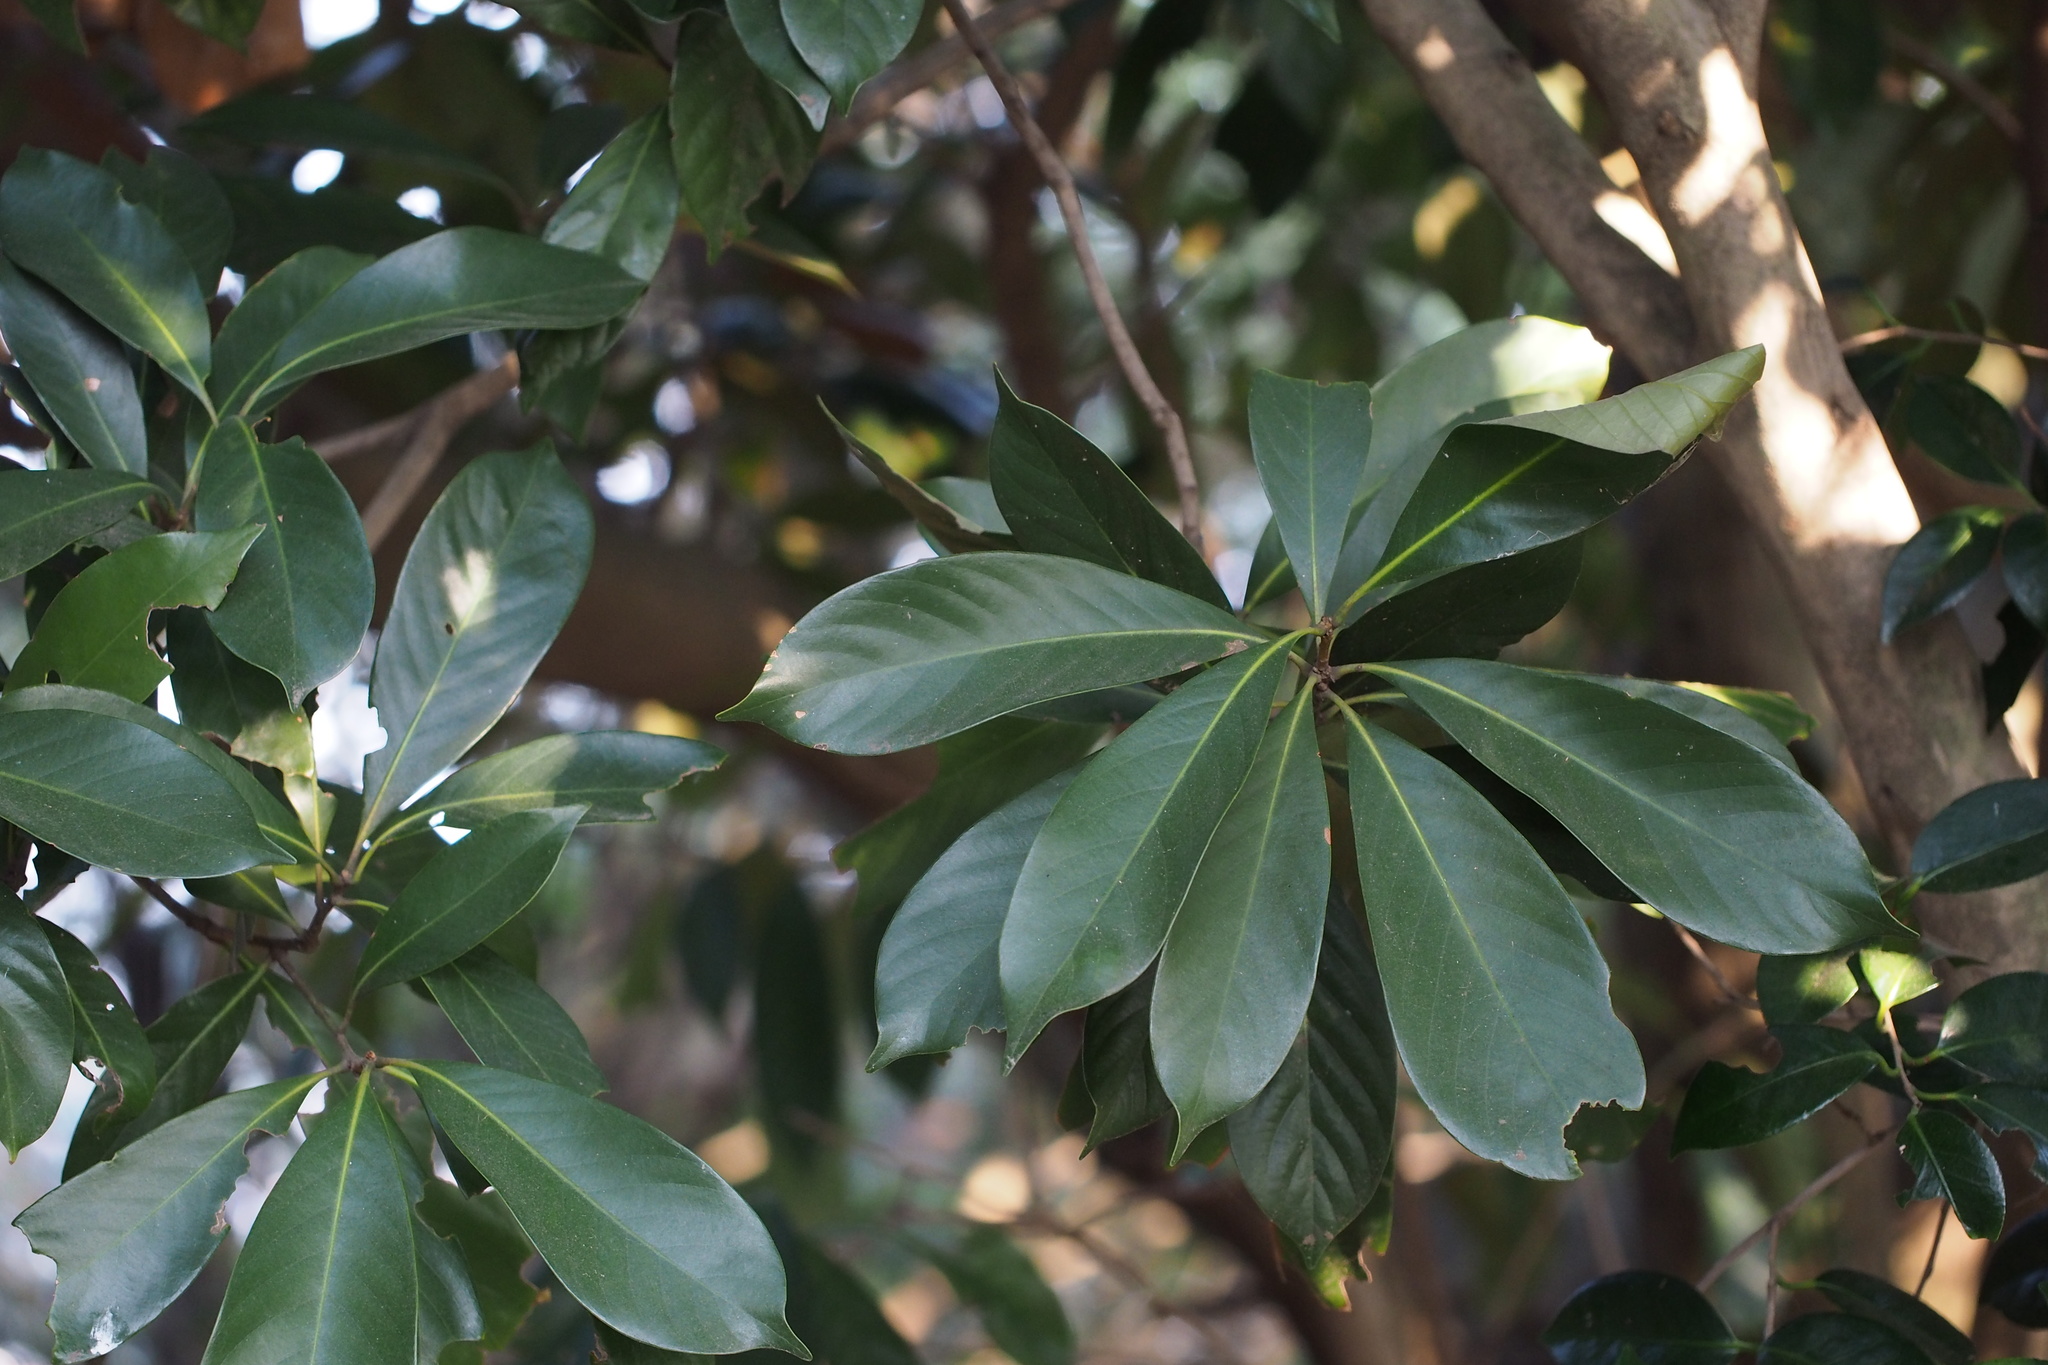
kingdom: Plantae
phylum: Tracheophyta
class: Magnoliopsida
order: Fagales
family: Fagaceae
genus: Lithocarpus
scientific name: Lithocarpus edulis
